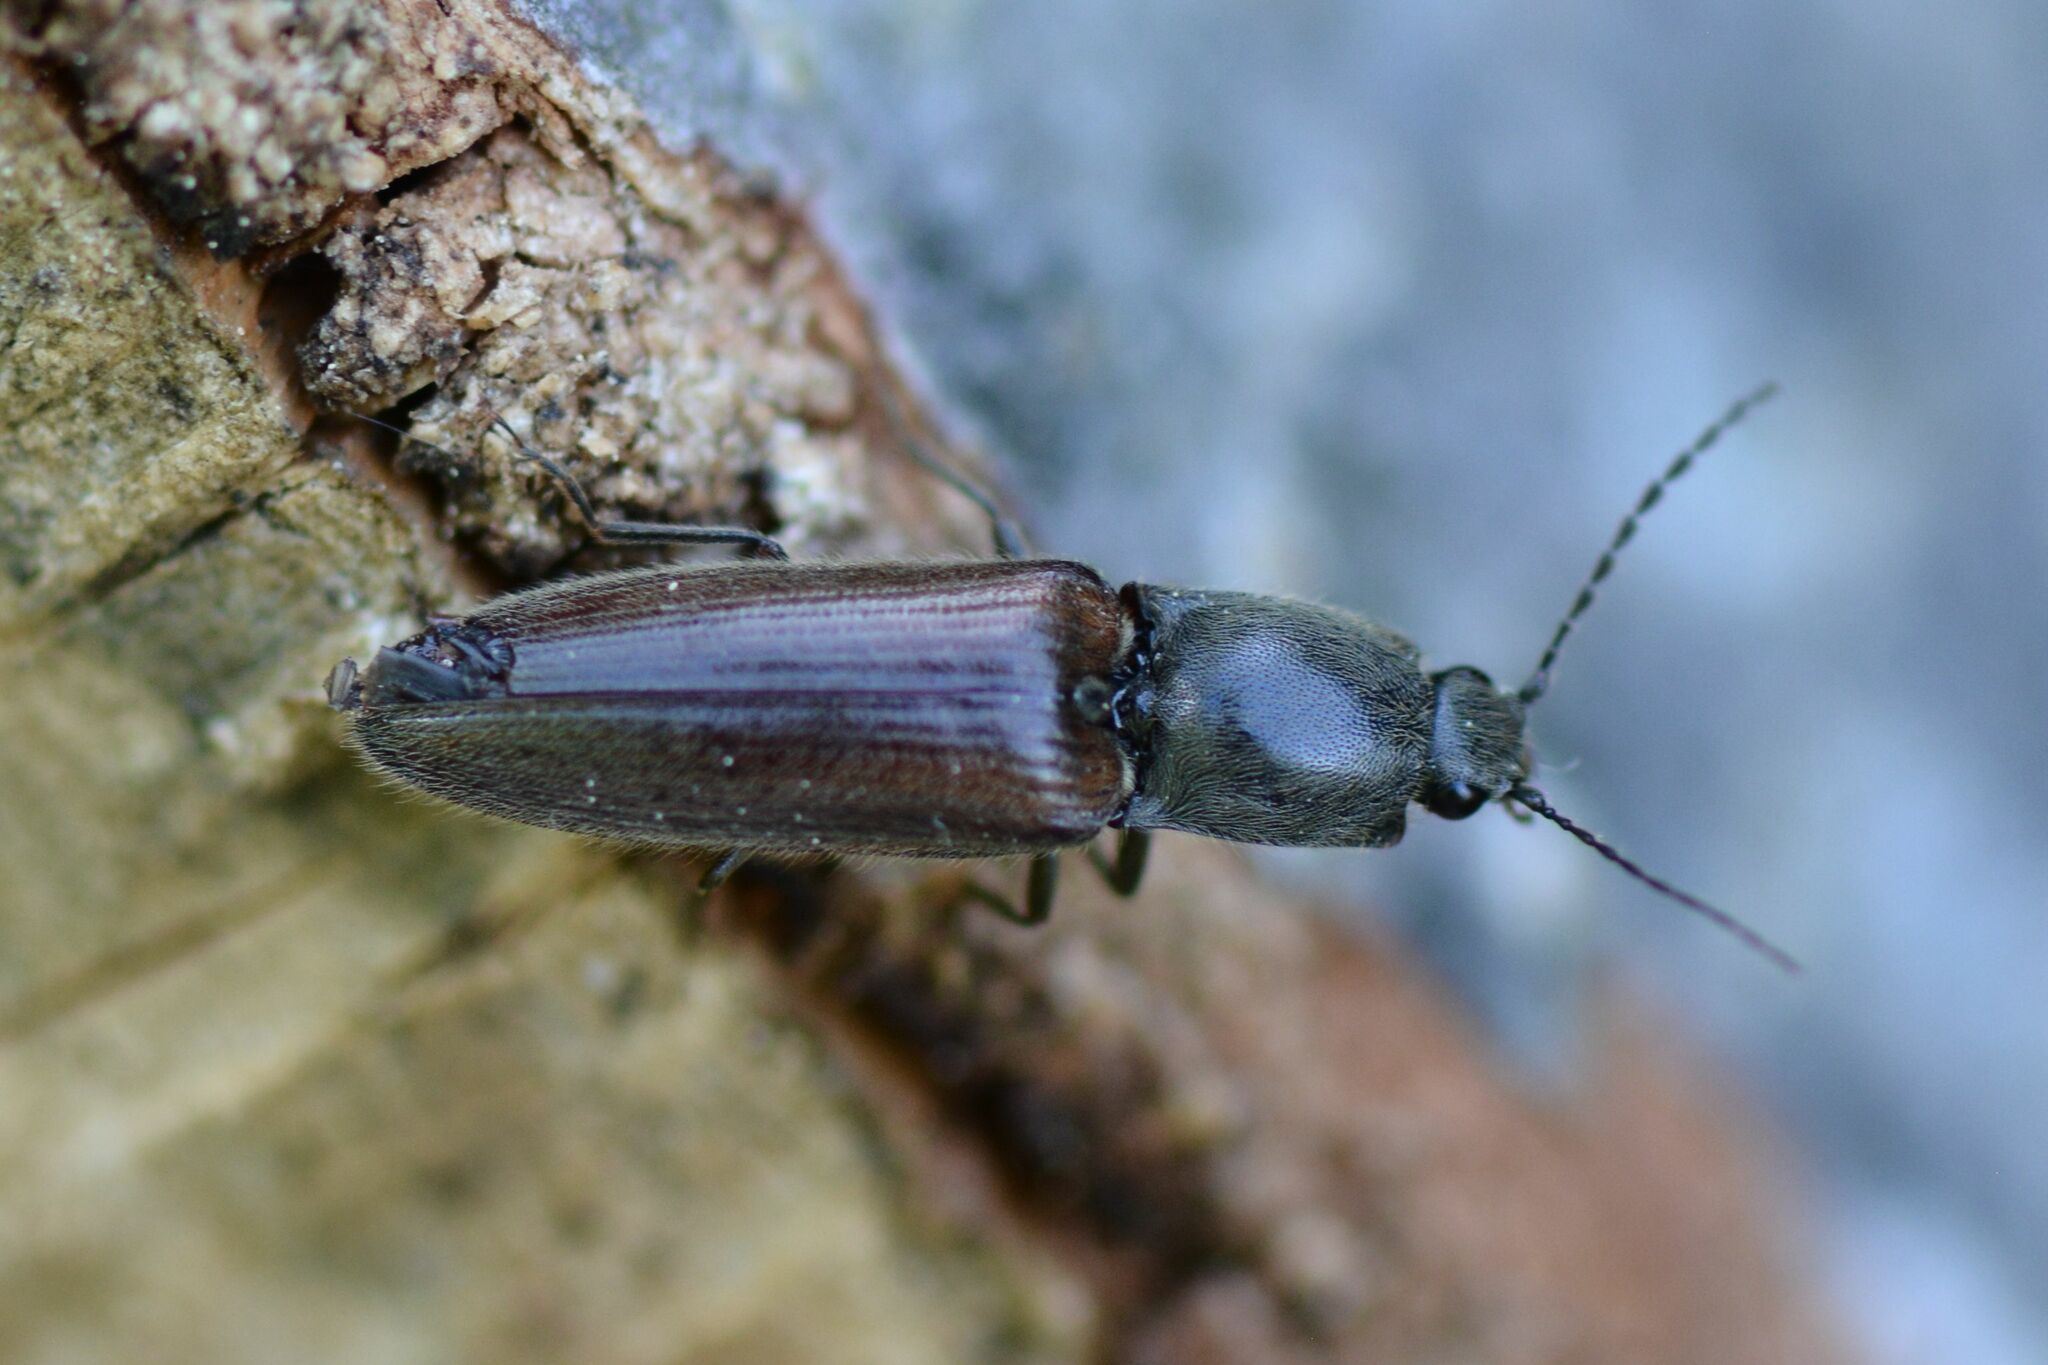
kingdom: Animalia
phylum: Arthropoda
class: Insecta
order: Coleoptera
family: Elateridae
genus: Athous
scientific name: Athous haemorrhoidalis
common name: Red-brown click beetle
